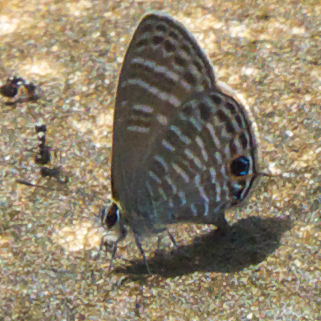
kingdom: Animalia
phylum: Arthropoda
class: Insecta
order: Lepidoptera
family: Lycaenidae
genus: Nacaduba
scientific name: Nacaduba pavana
